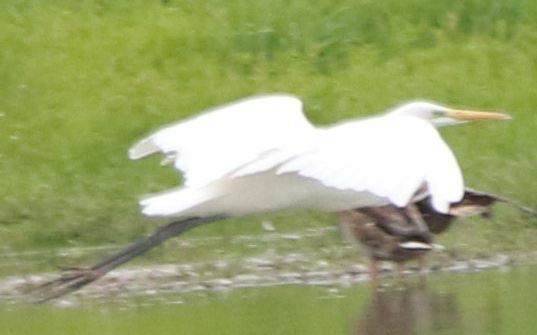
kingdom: Animalia
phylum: Chordata
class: Aves
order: Pelecaniformes
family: Ardeidae
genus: Ardea
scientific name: Ardea alba
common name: Great egret
